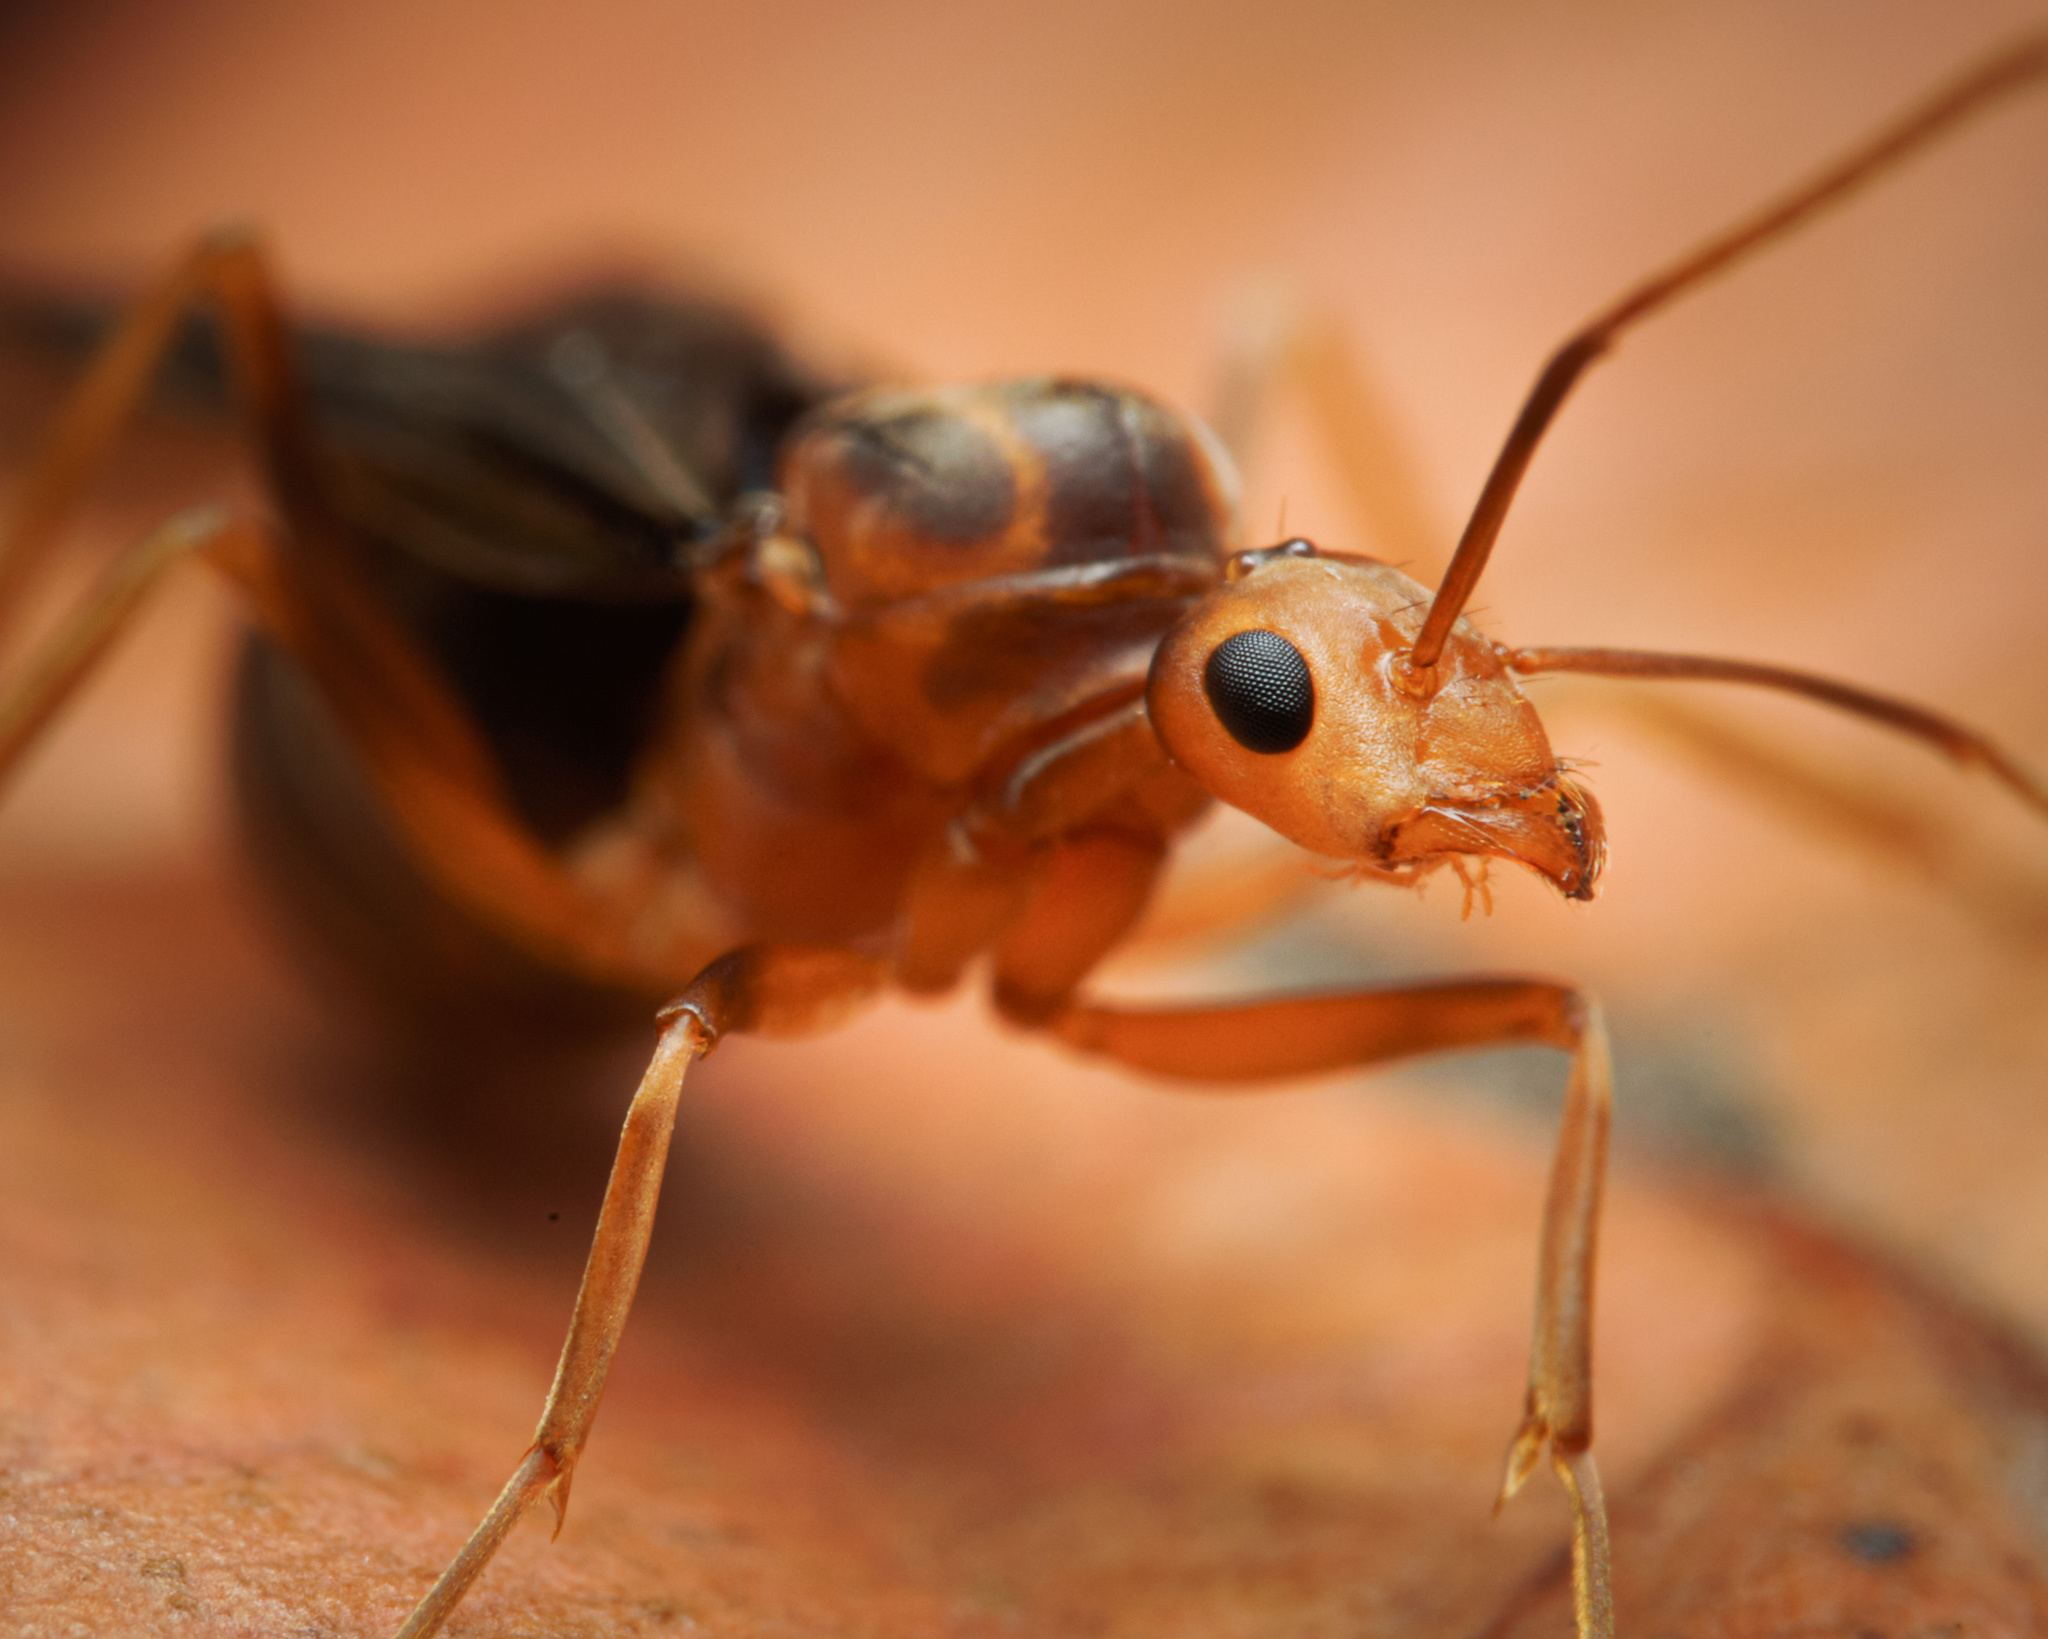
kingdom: Animalia
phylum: Arthropoda
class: Insecta
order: Hymenoptera
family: Formicidae
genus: Anoplolepis
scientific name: Anoplolepis gracilipes
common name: Ant
